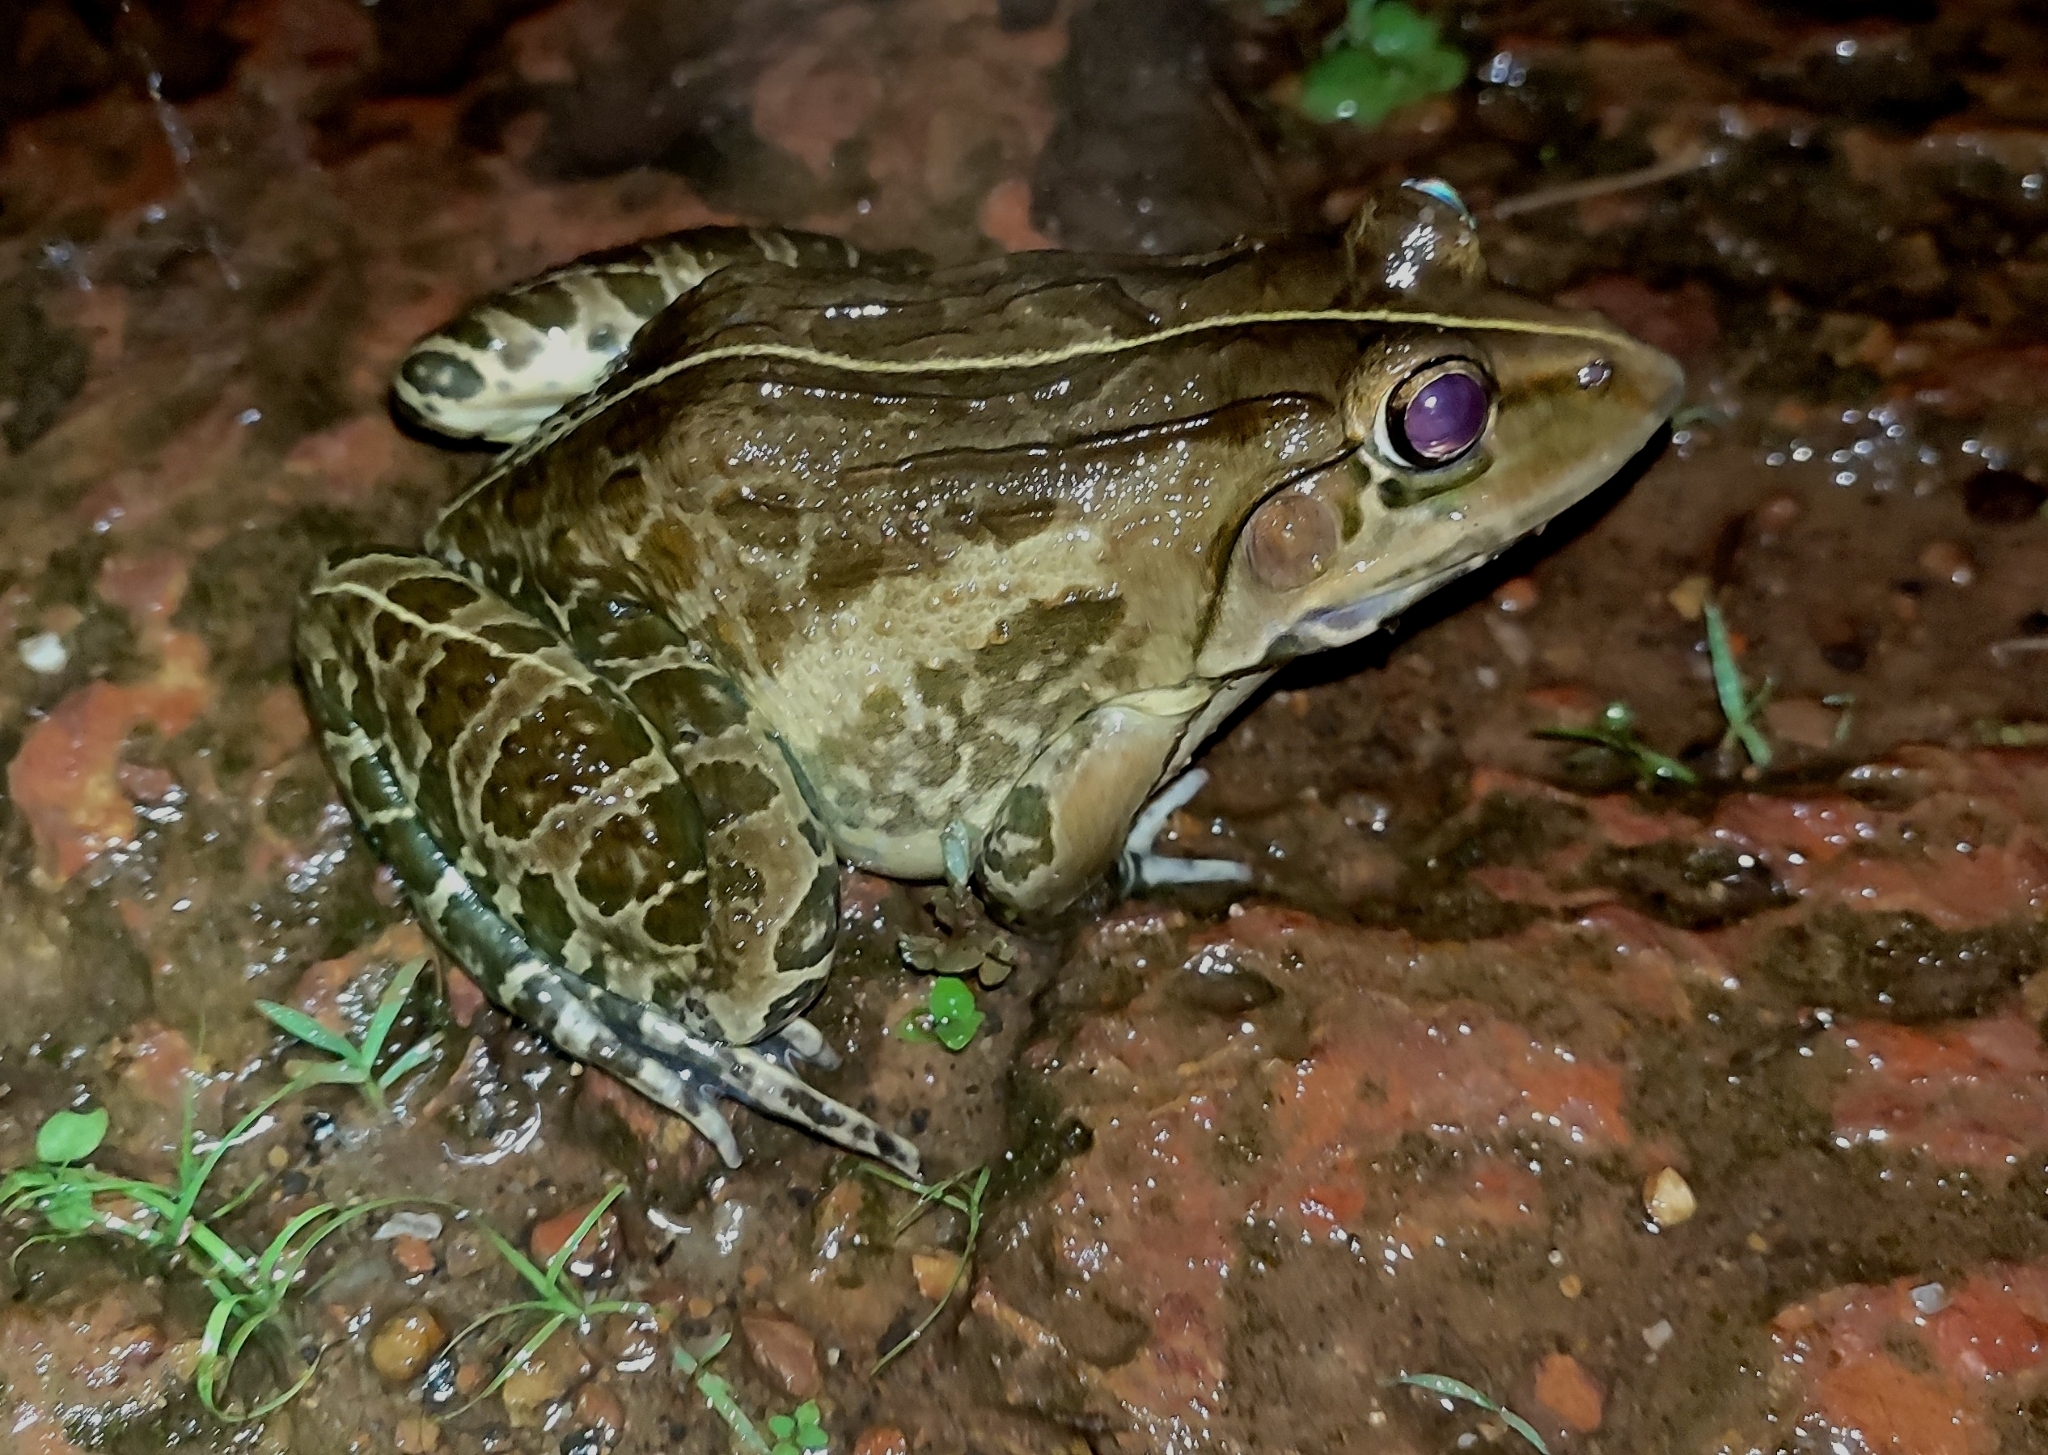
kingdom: Animalia
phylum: Chordata
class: Amphibia
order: Anura
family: Dicroglossidae
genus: Hoplobatrachus
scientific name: Hoplobatrachus tigerinus
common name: Indian bullfrog
